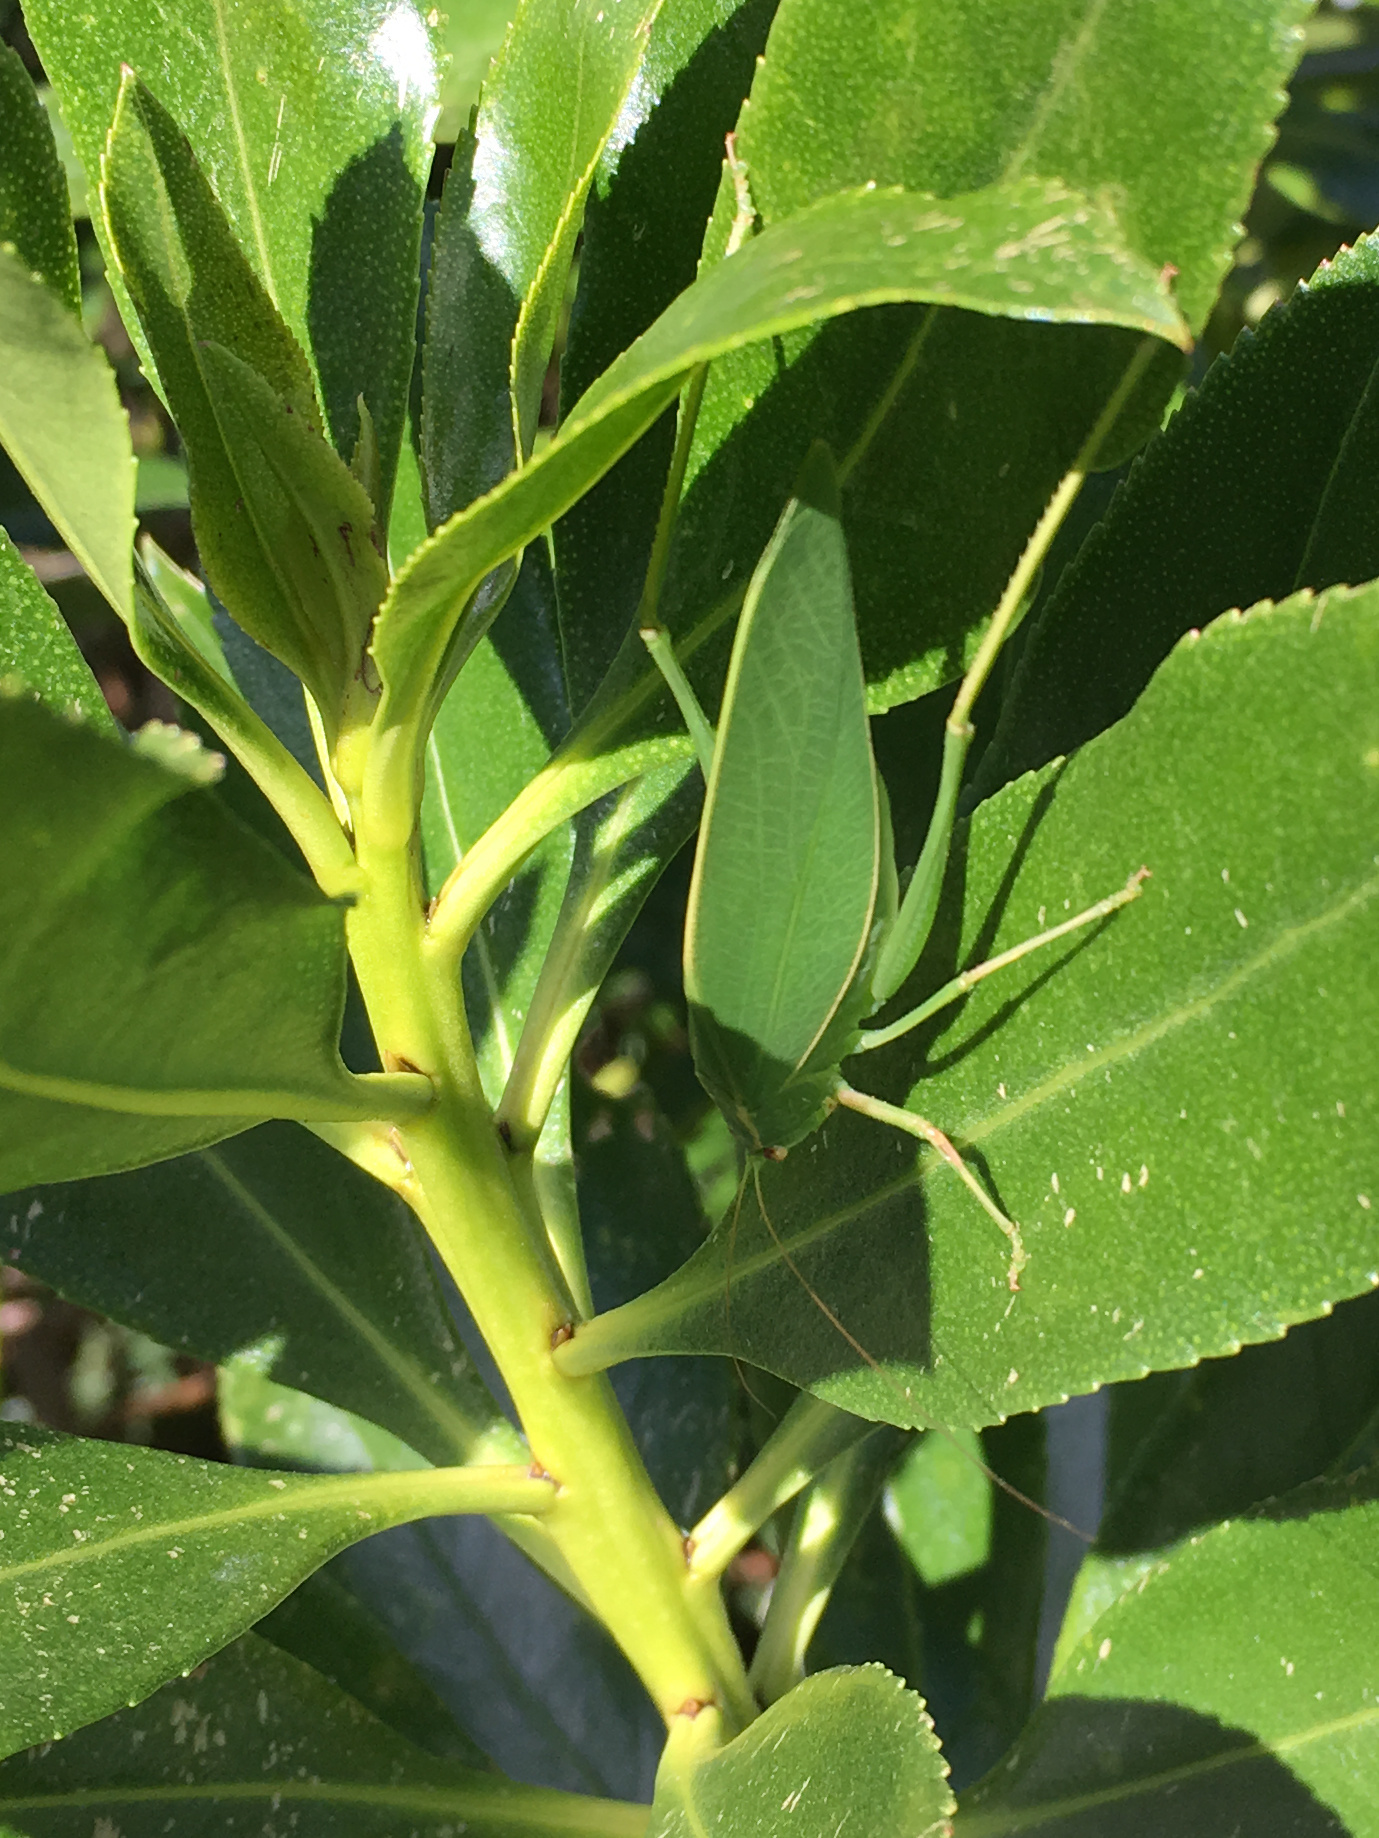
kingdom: Animalia
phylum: Arthropoda
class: Insecta
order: Orthoptera
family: Tettigoniidae
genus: Caedicia
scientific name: Caedicia simplex
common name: Common garden katydid
